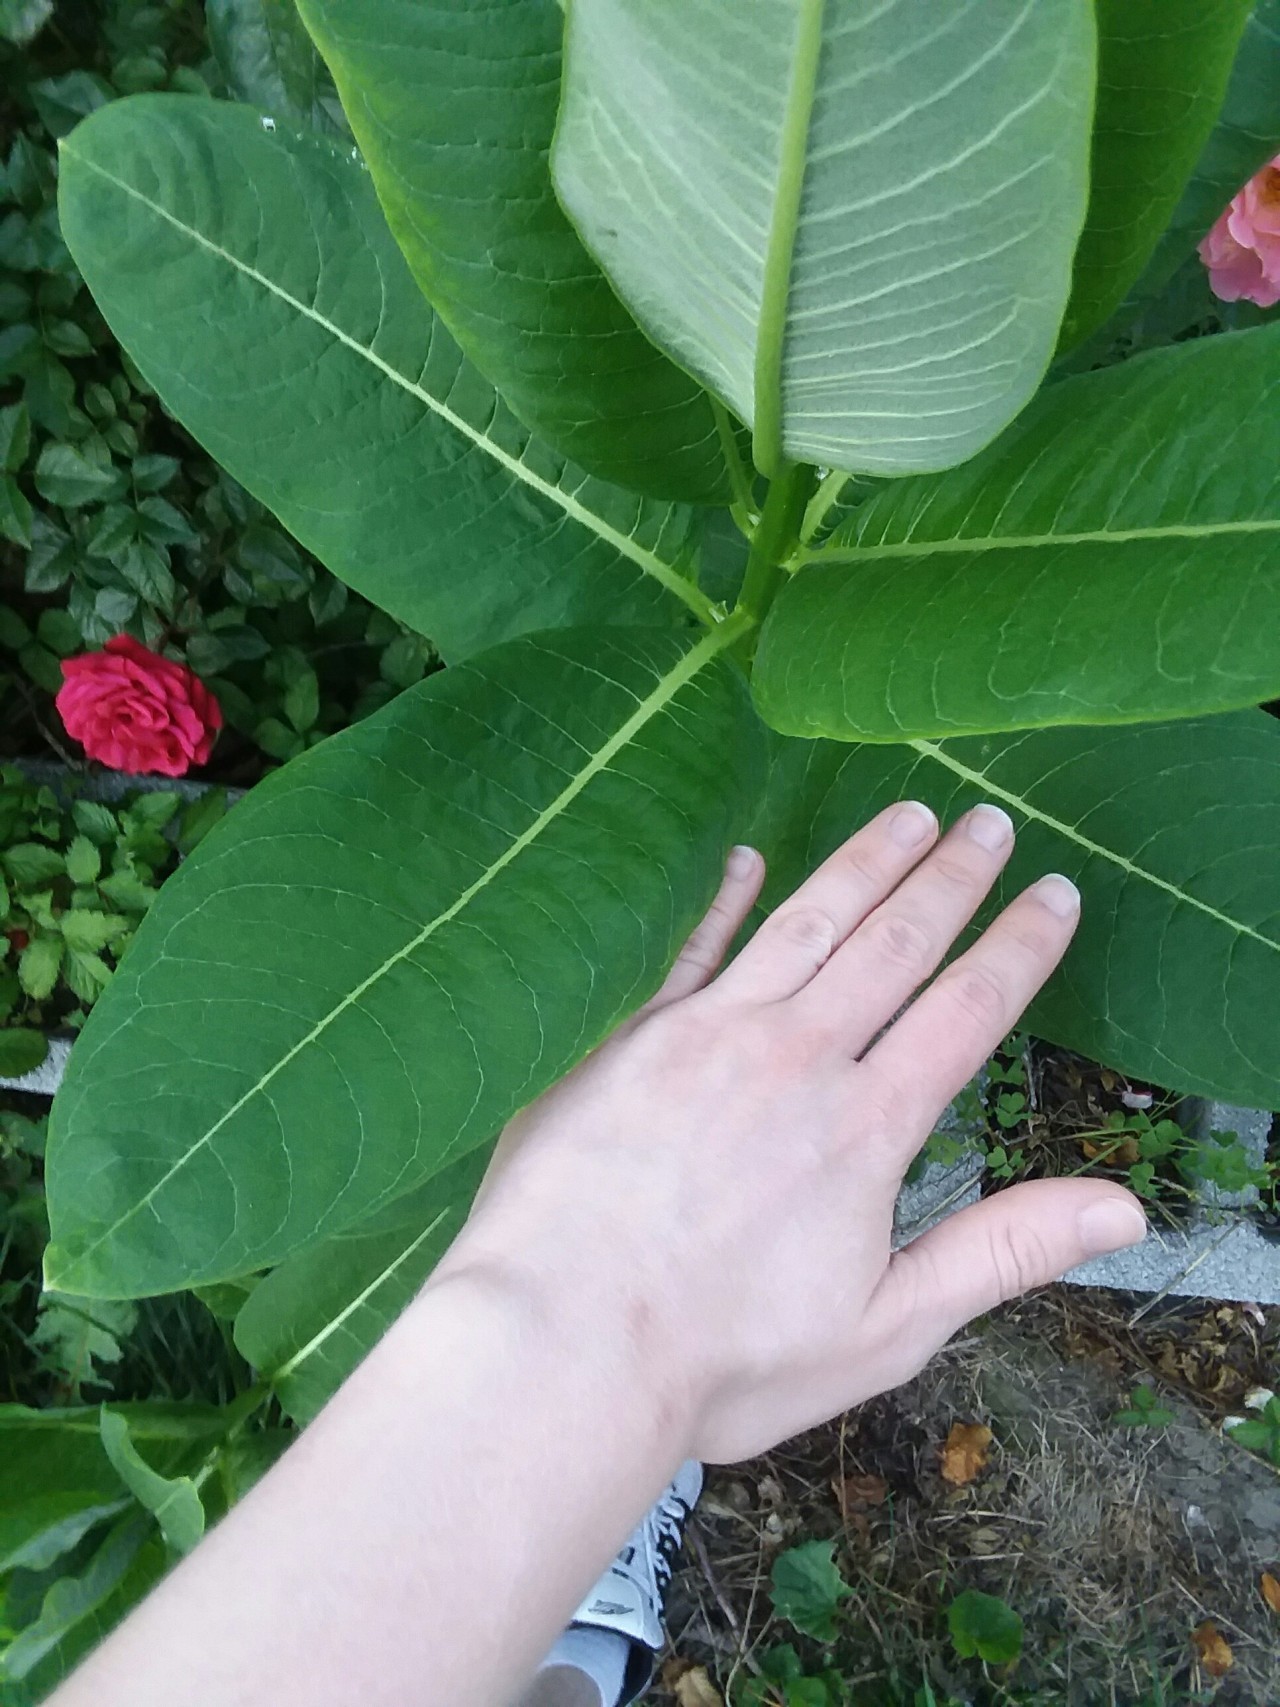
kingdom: Plantae
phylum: Tracheophyta
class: Magnoliopsida
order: Gentianales
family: Apocynaceae
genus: Asclepias
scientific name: Asclepias syriaca
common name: Common milkweed
